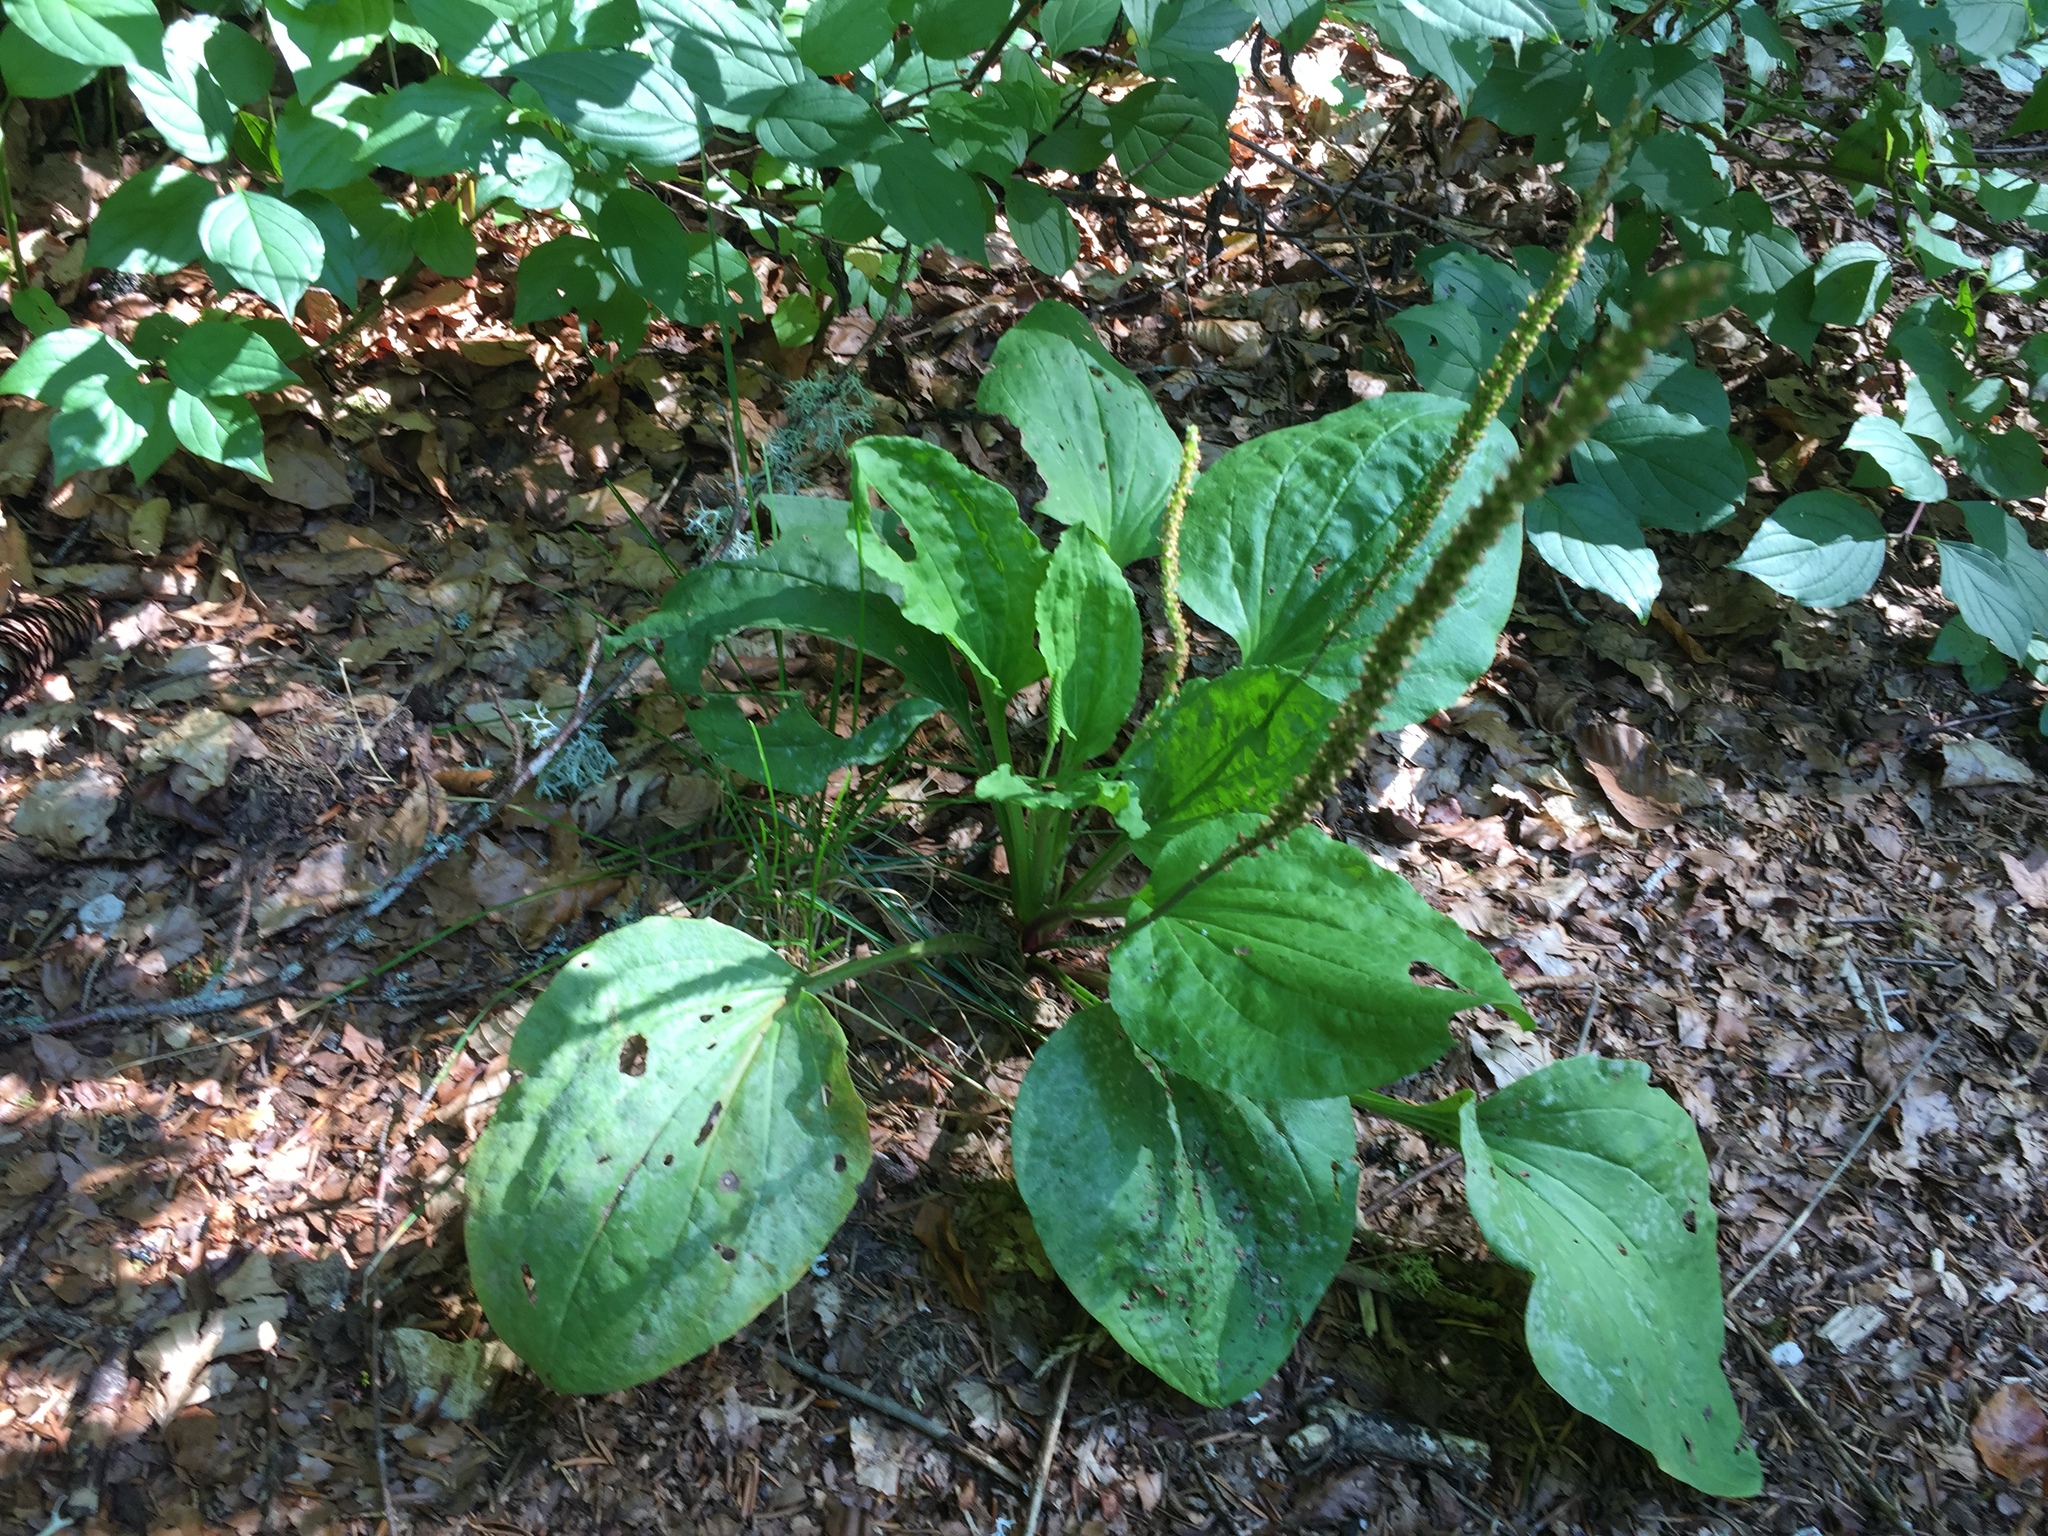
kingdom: Plantae
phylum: Tracheophyta
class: Magnoliopsida
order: Lamiales
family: Plantaginaceae
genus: Plantago
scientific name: Plantago major
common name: Common plantain
